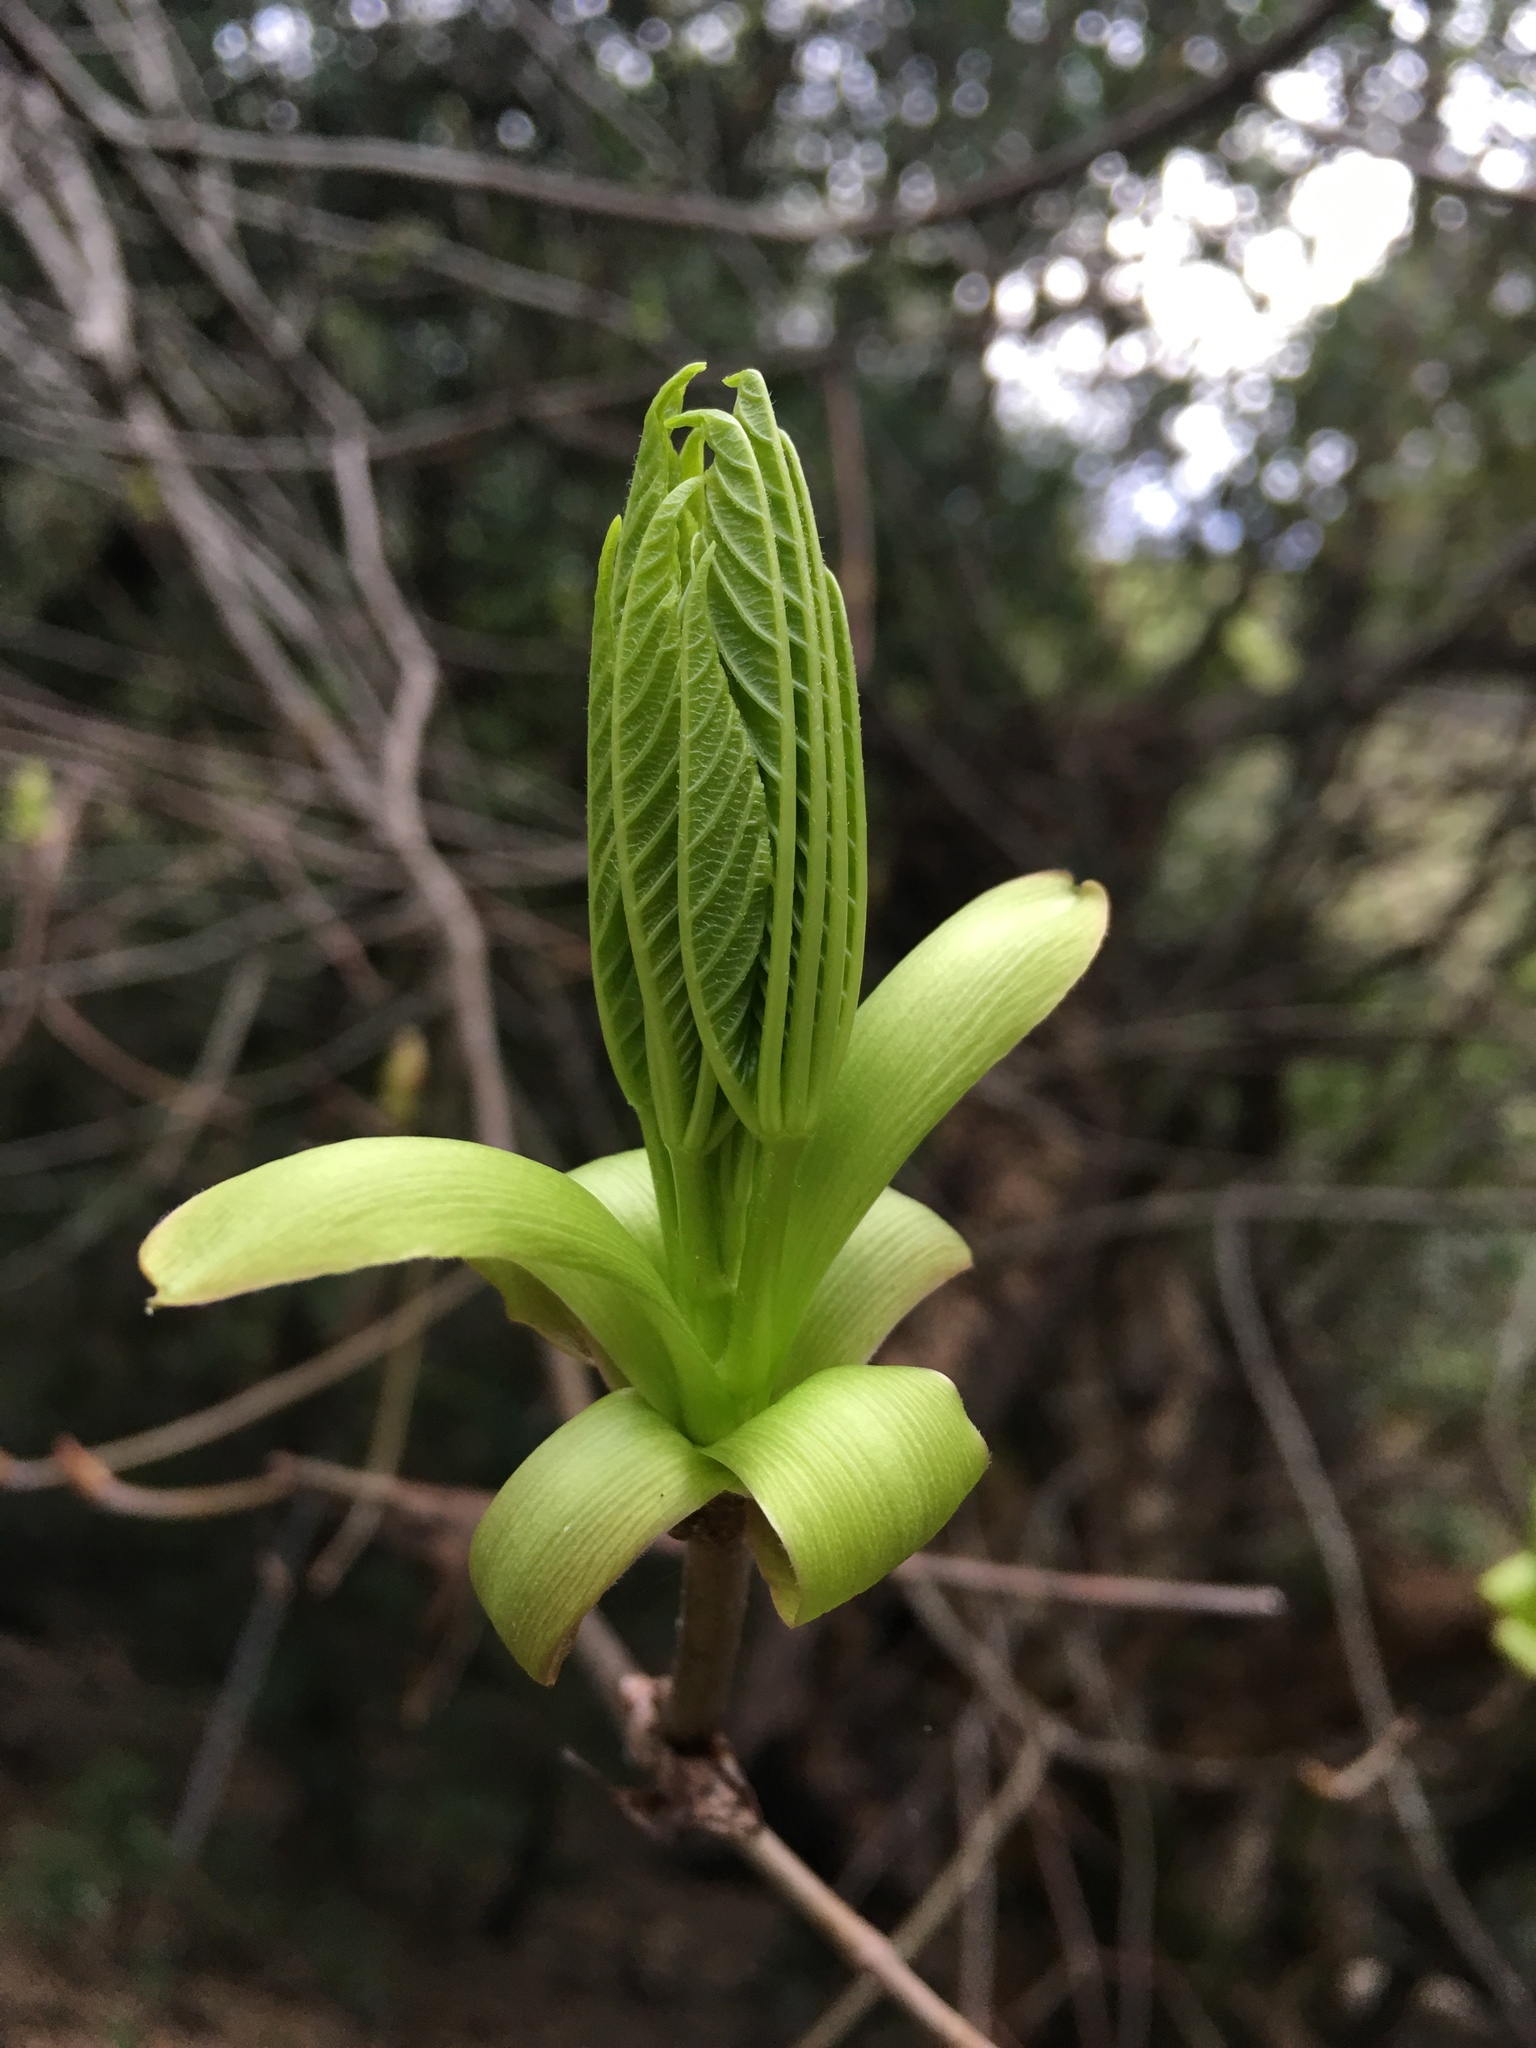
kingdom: Plantae
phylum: Tracheophyta
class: Magnoliopsida
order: Sapindales
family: Sapindaceae
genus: Aesculus
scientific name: Aesculus californica
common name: California buckeye
